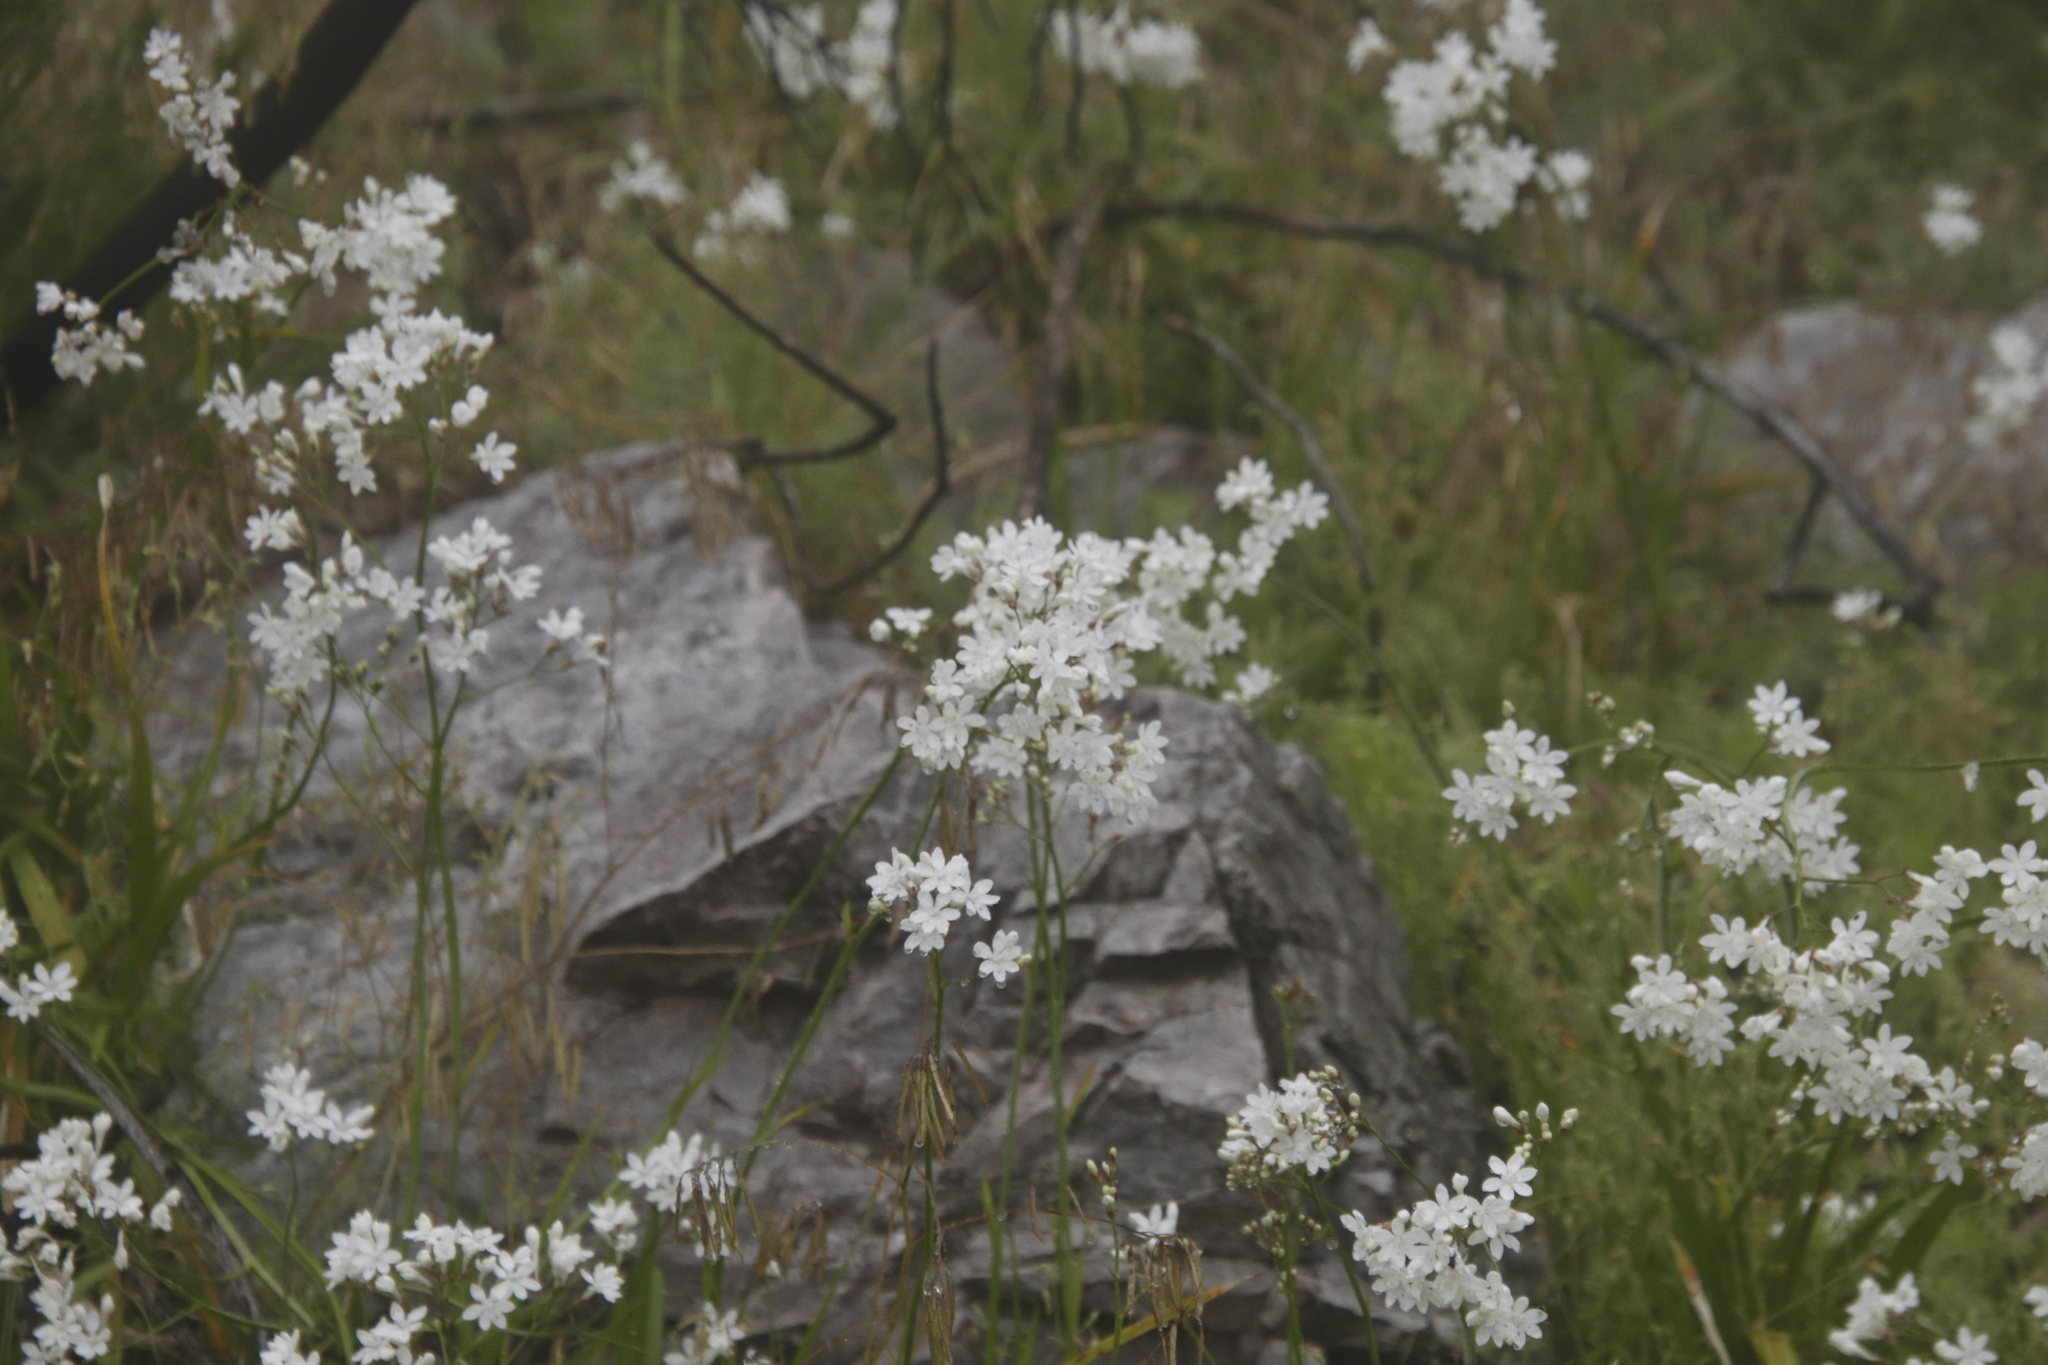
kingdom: Plantae
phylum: Tracheophyta
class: Liliopsida
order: Asparagales
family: Iridaceae
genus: Schizorhiza
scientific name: Schizorhiza neglecta
